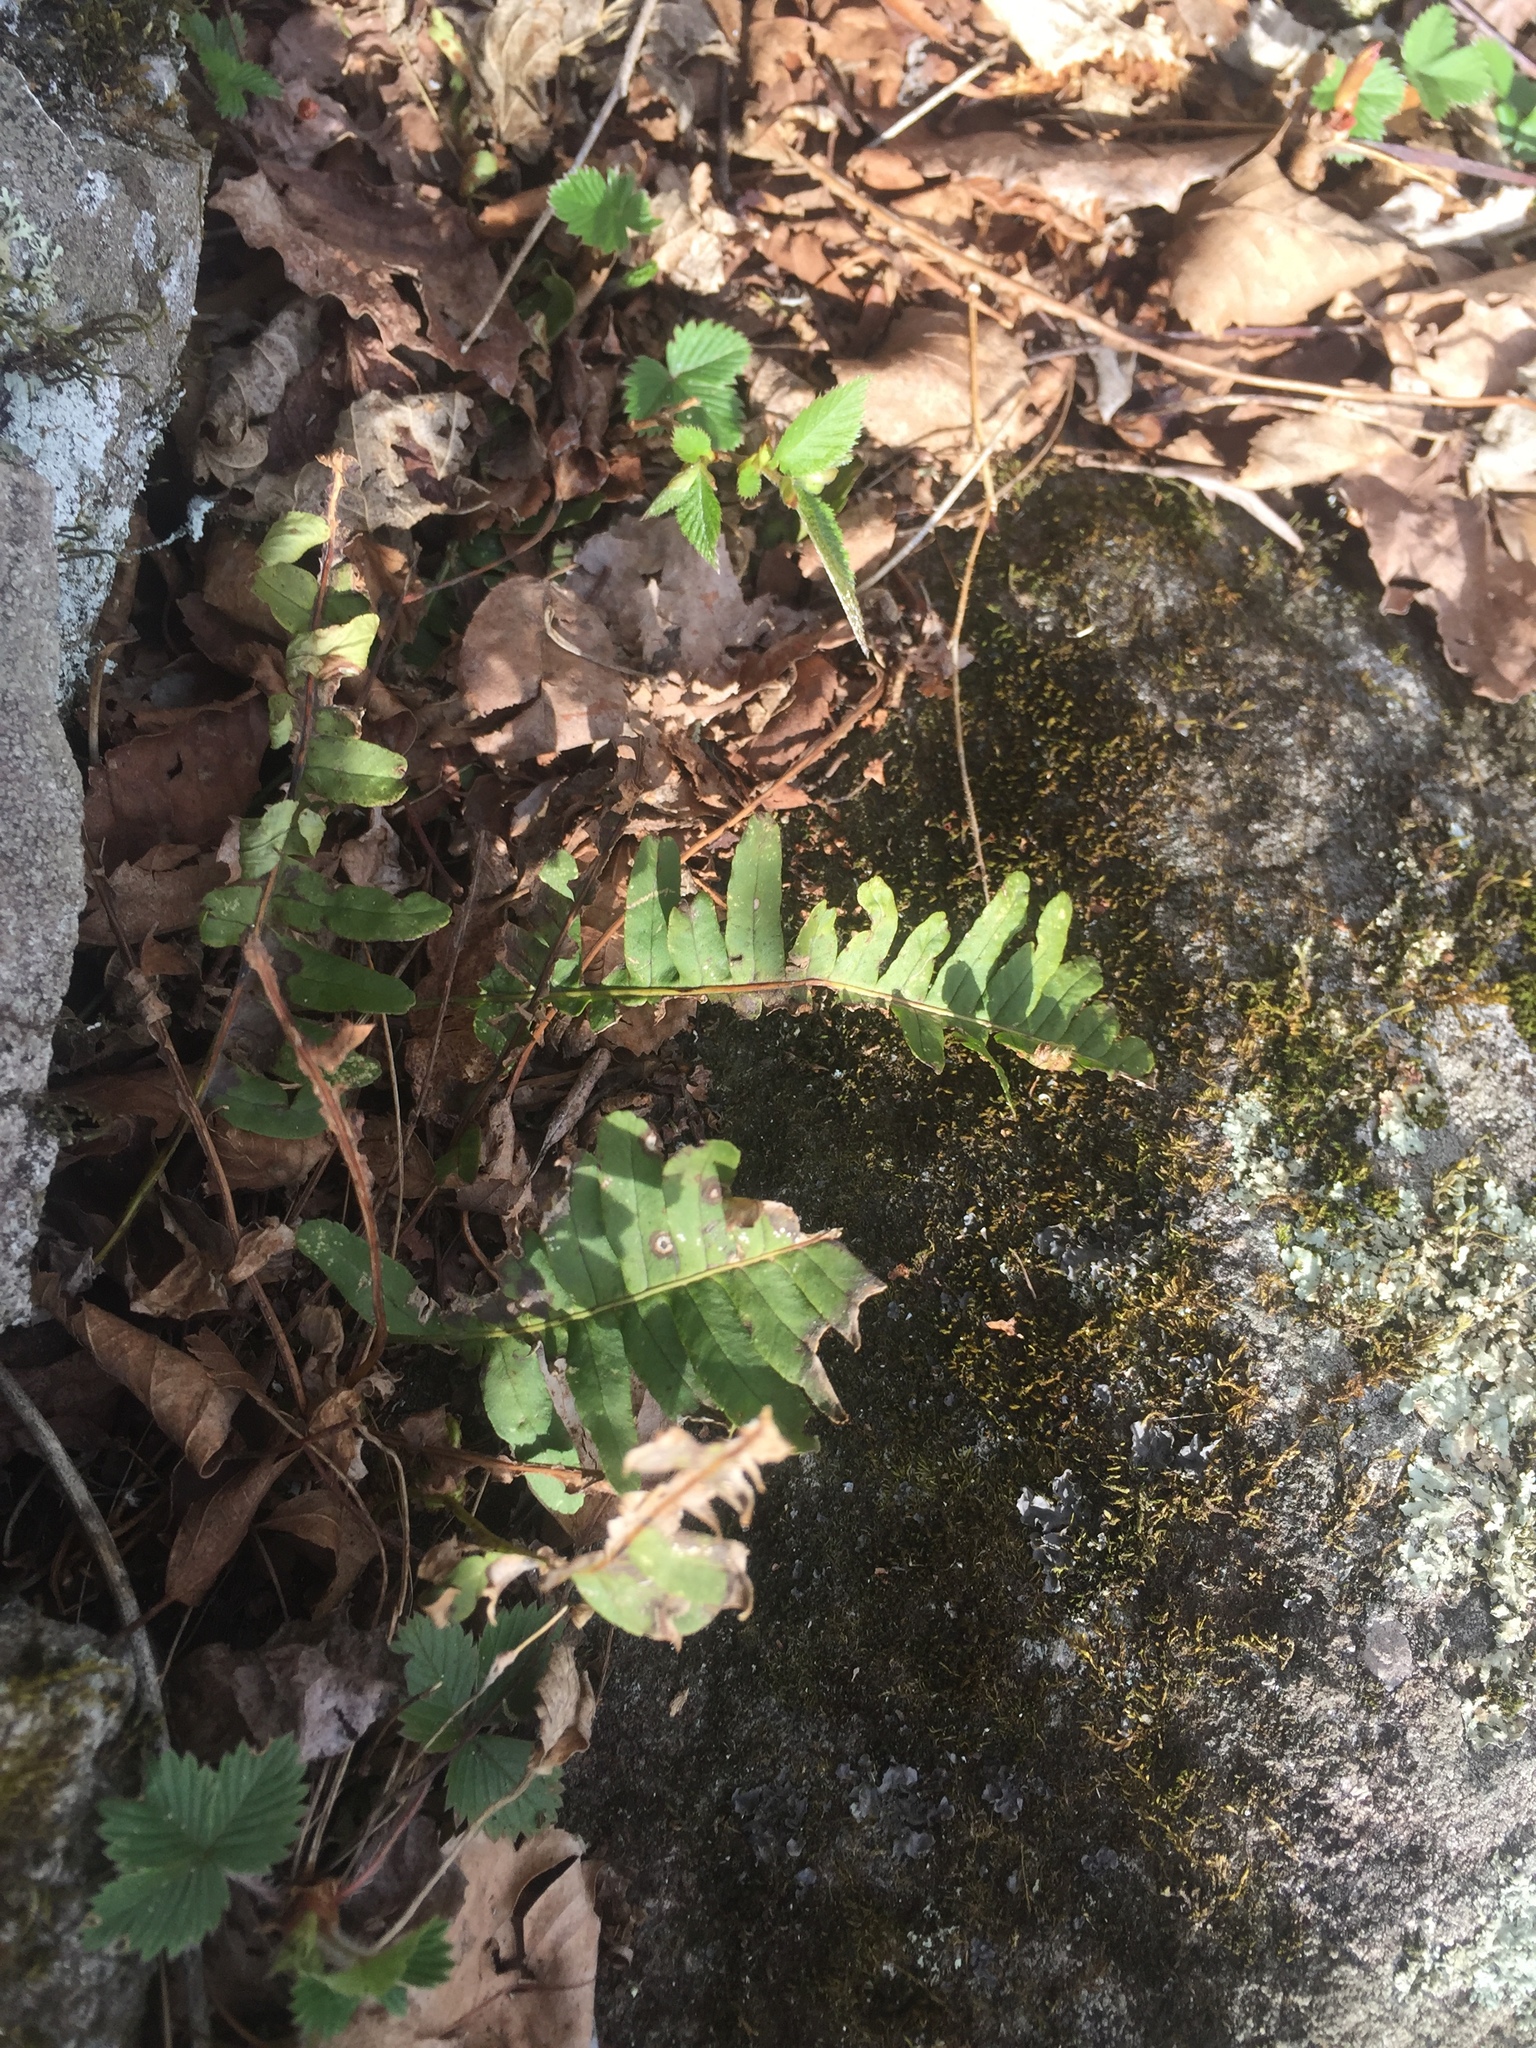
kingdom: Plantae
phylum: Tracheophyta
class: Polypodiopsida
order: Polypodiales
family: Polypodiaceae
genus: Polypodium
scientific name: Polypodium virginianum
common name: American wall fern
